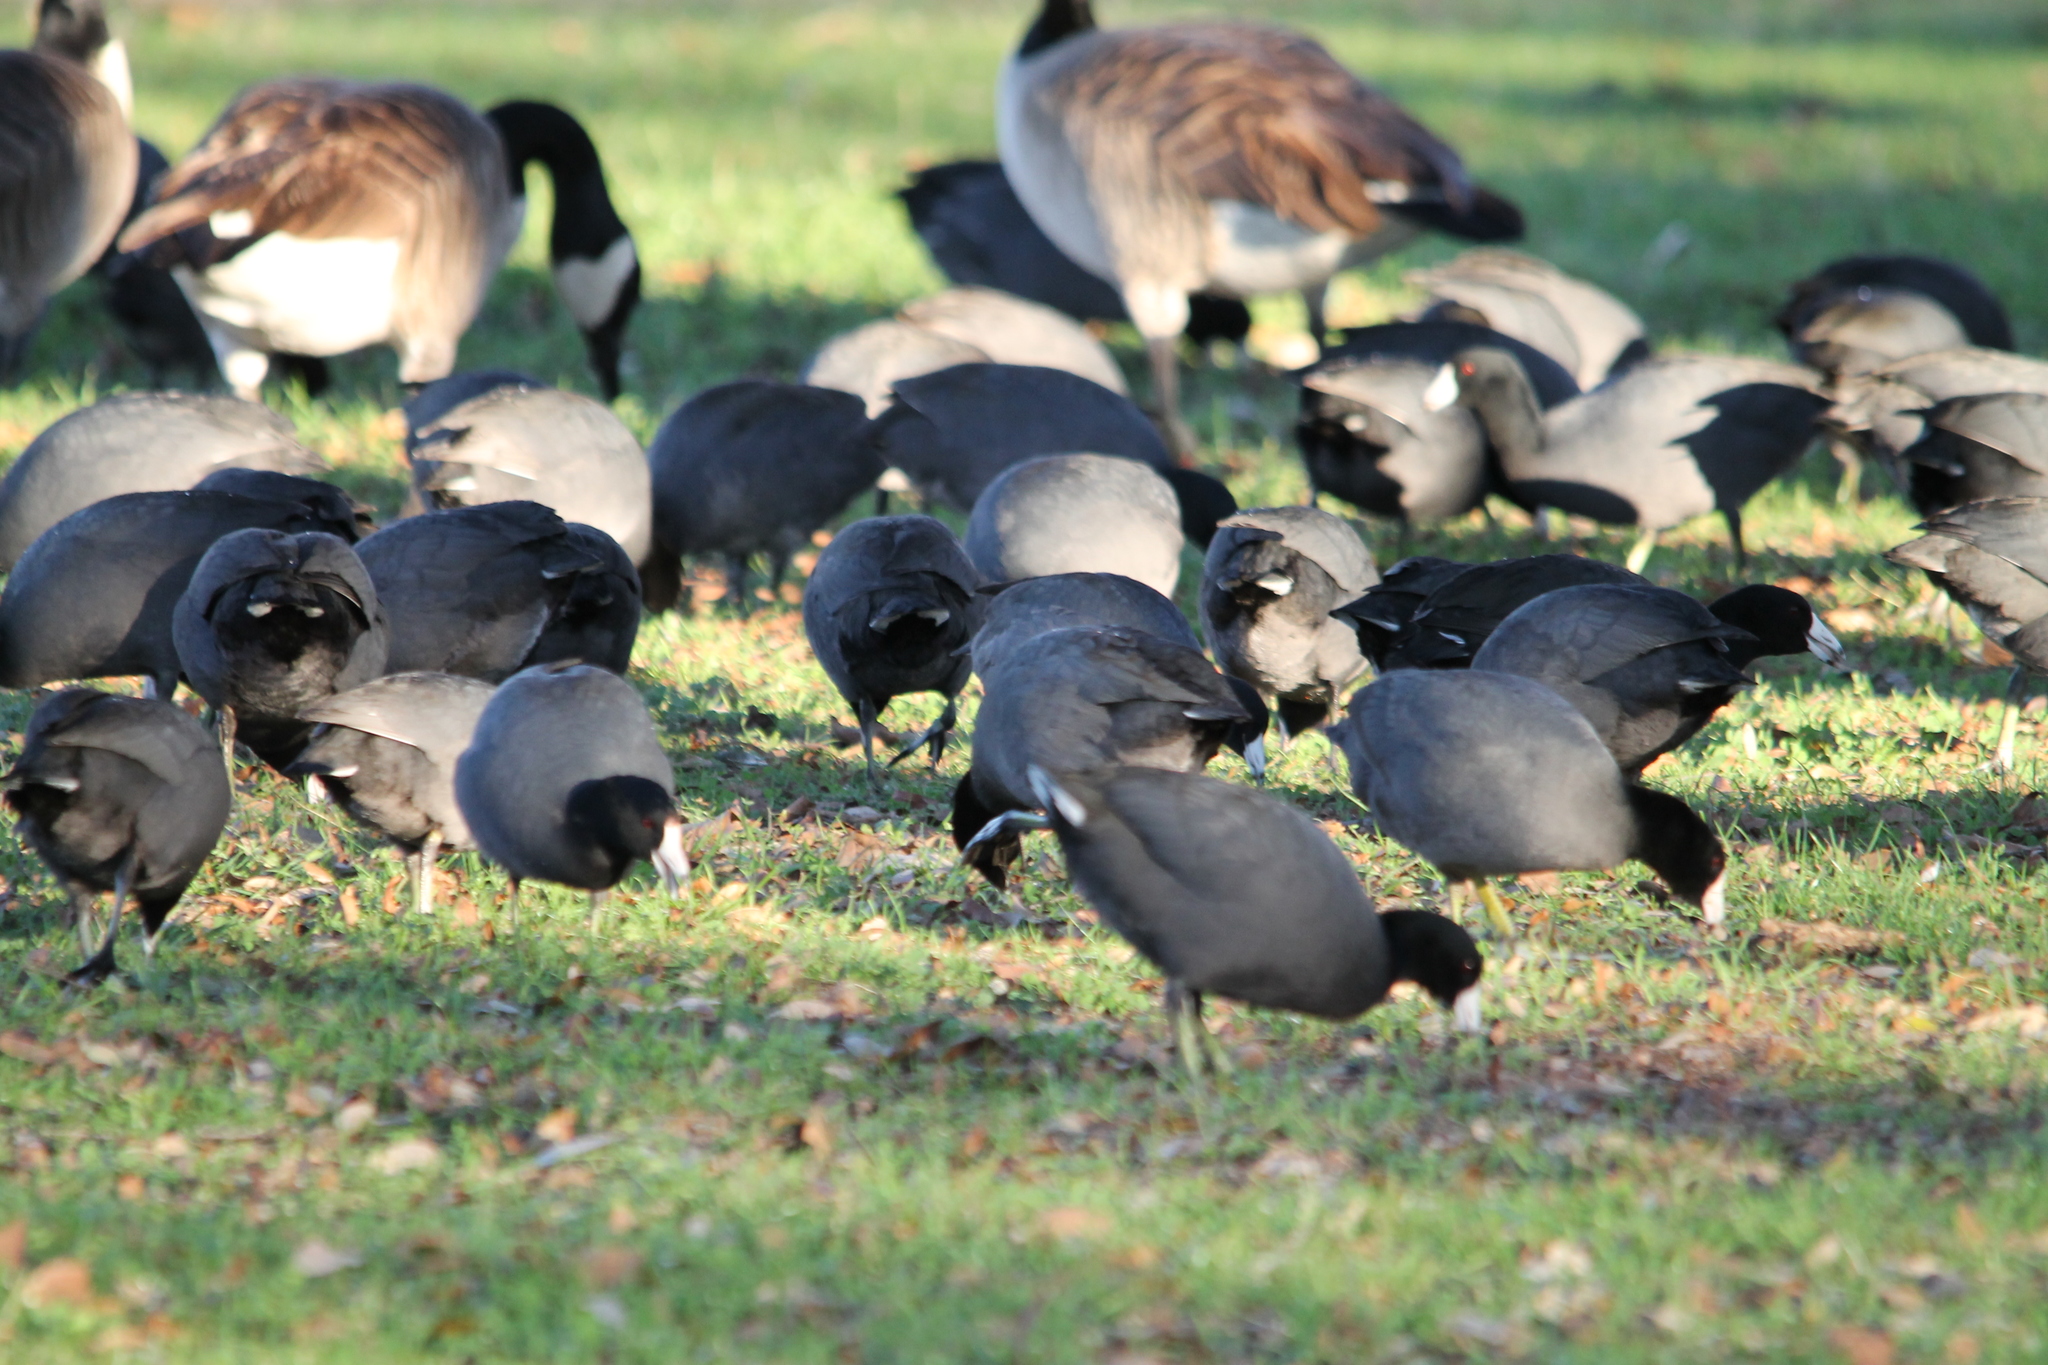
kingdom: Animalia
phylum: Chordata
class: Aves
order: Gruiformes
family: Rallidae
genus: Fulica
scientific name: Fulica americana
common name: American coot
